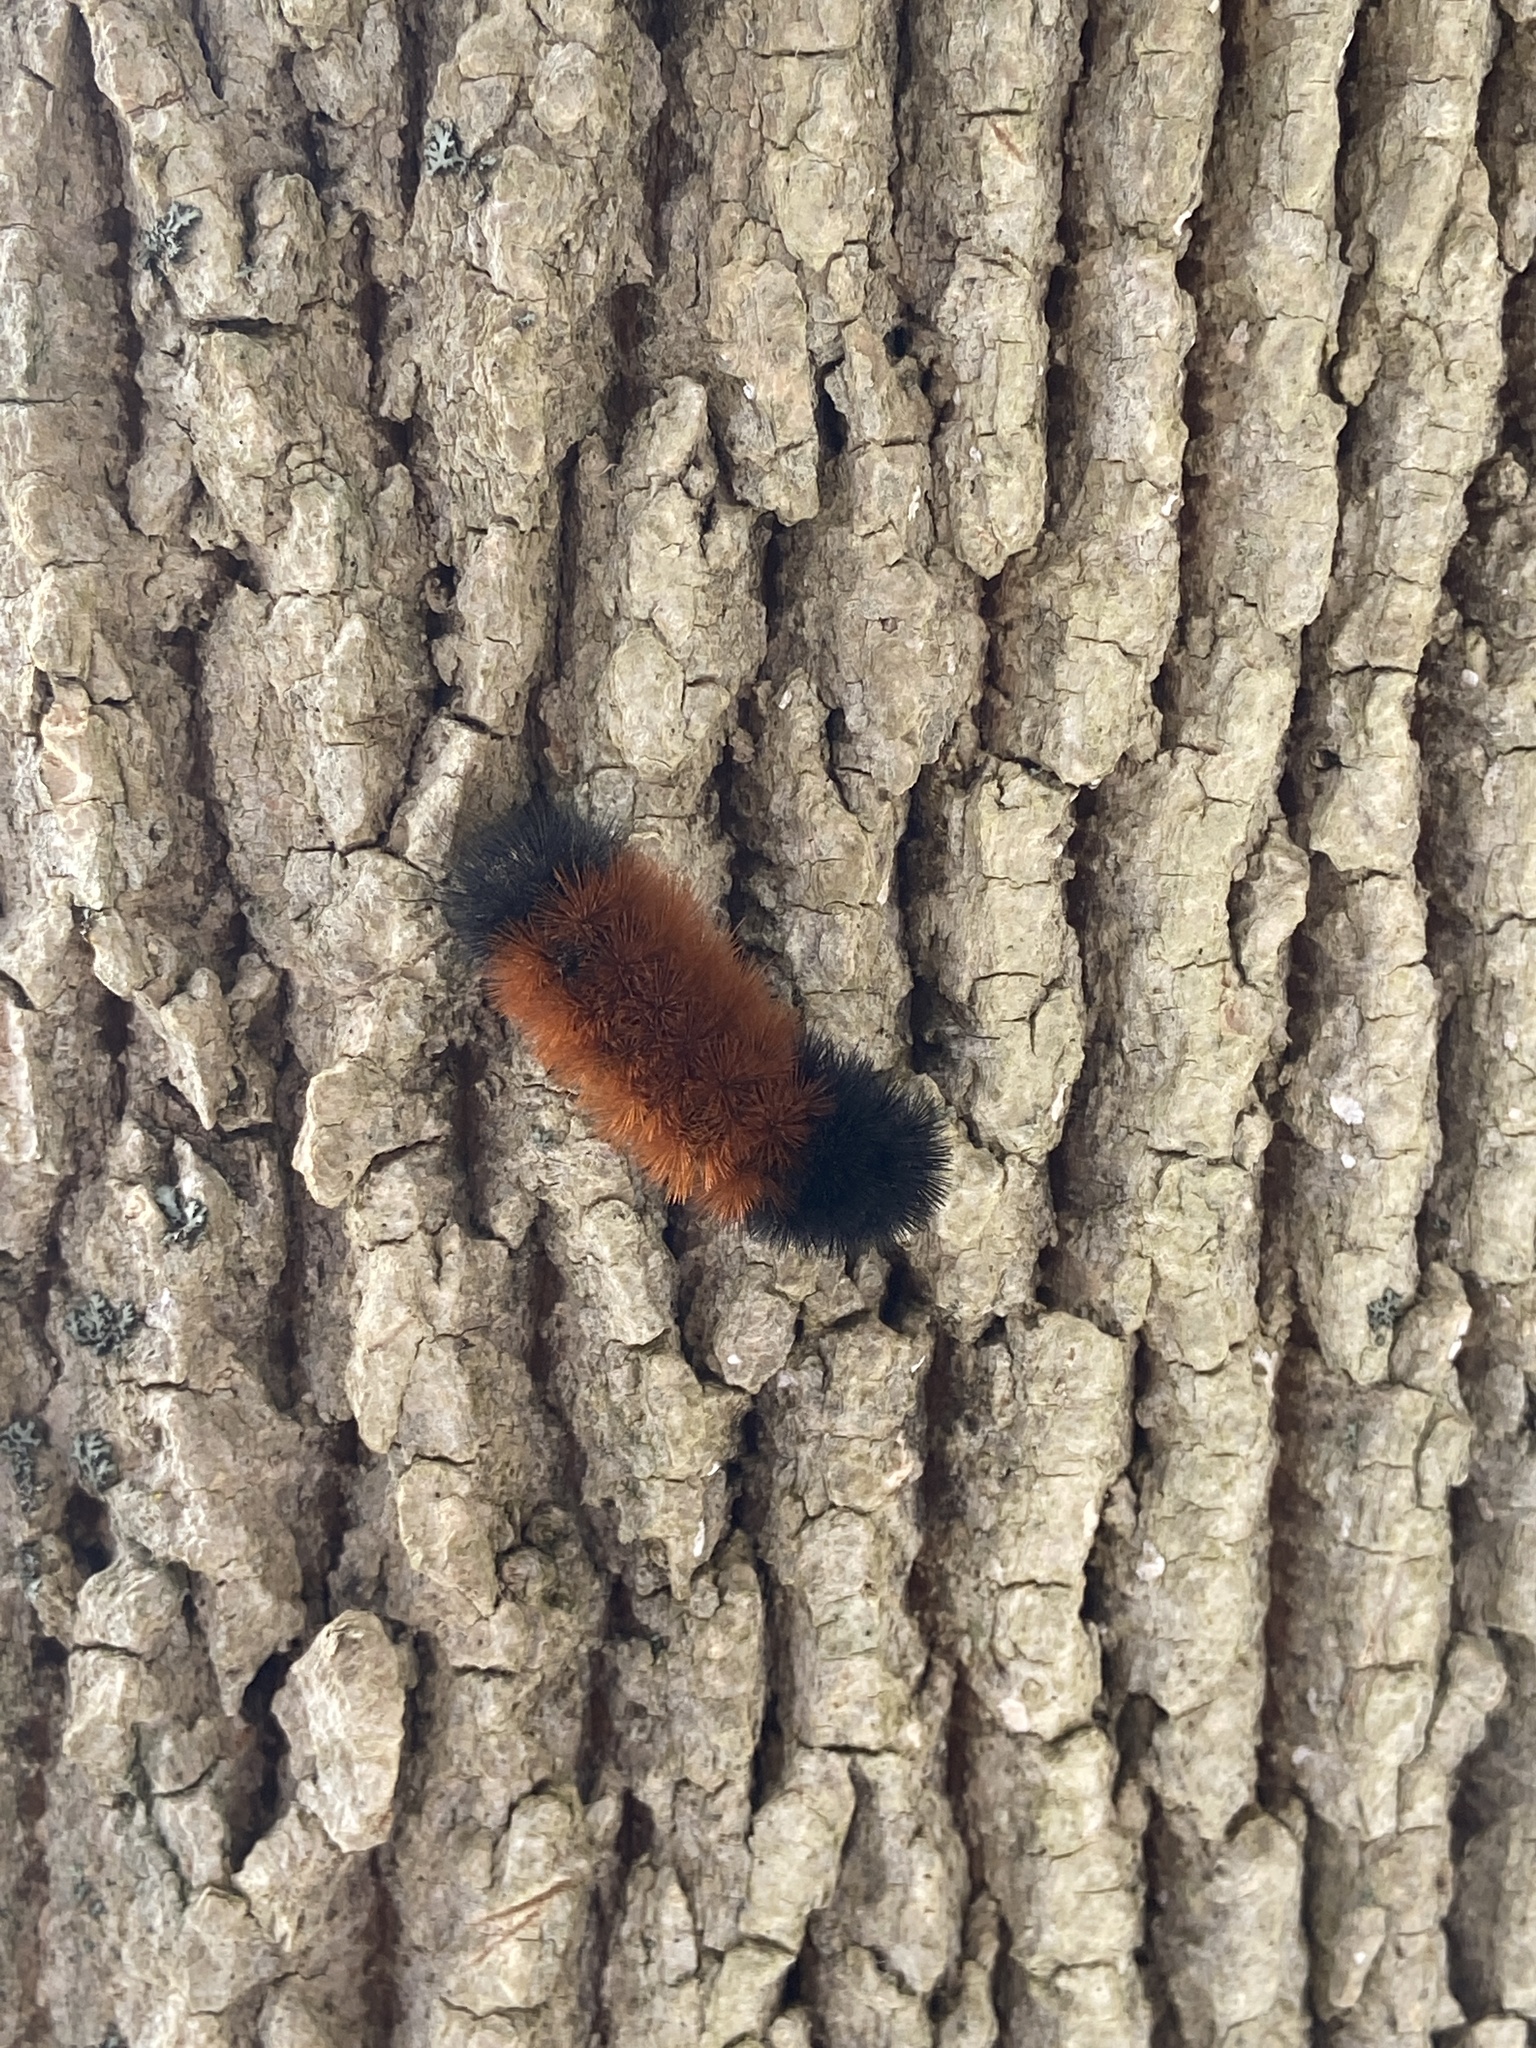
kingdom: Animalia
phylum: Arthropoda
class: Insecta
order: Lepidoptera
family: Erebidae
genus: Pyrrharctia
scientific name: Pyrrharctia isabella
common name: Isabella tiger moth
